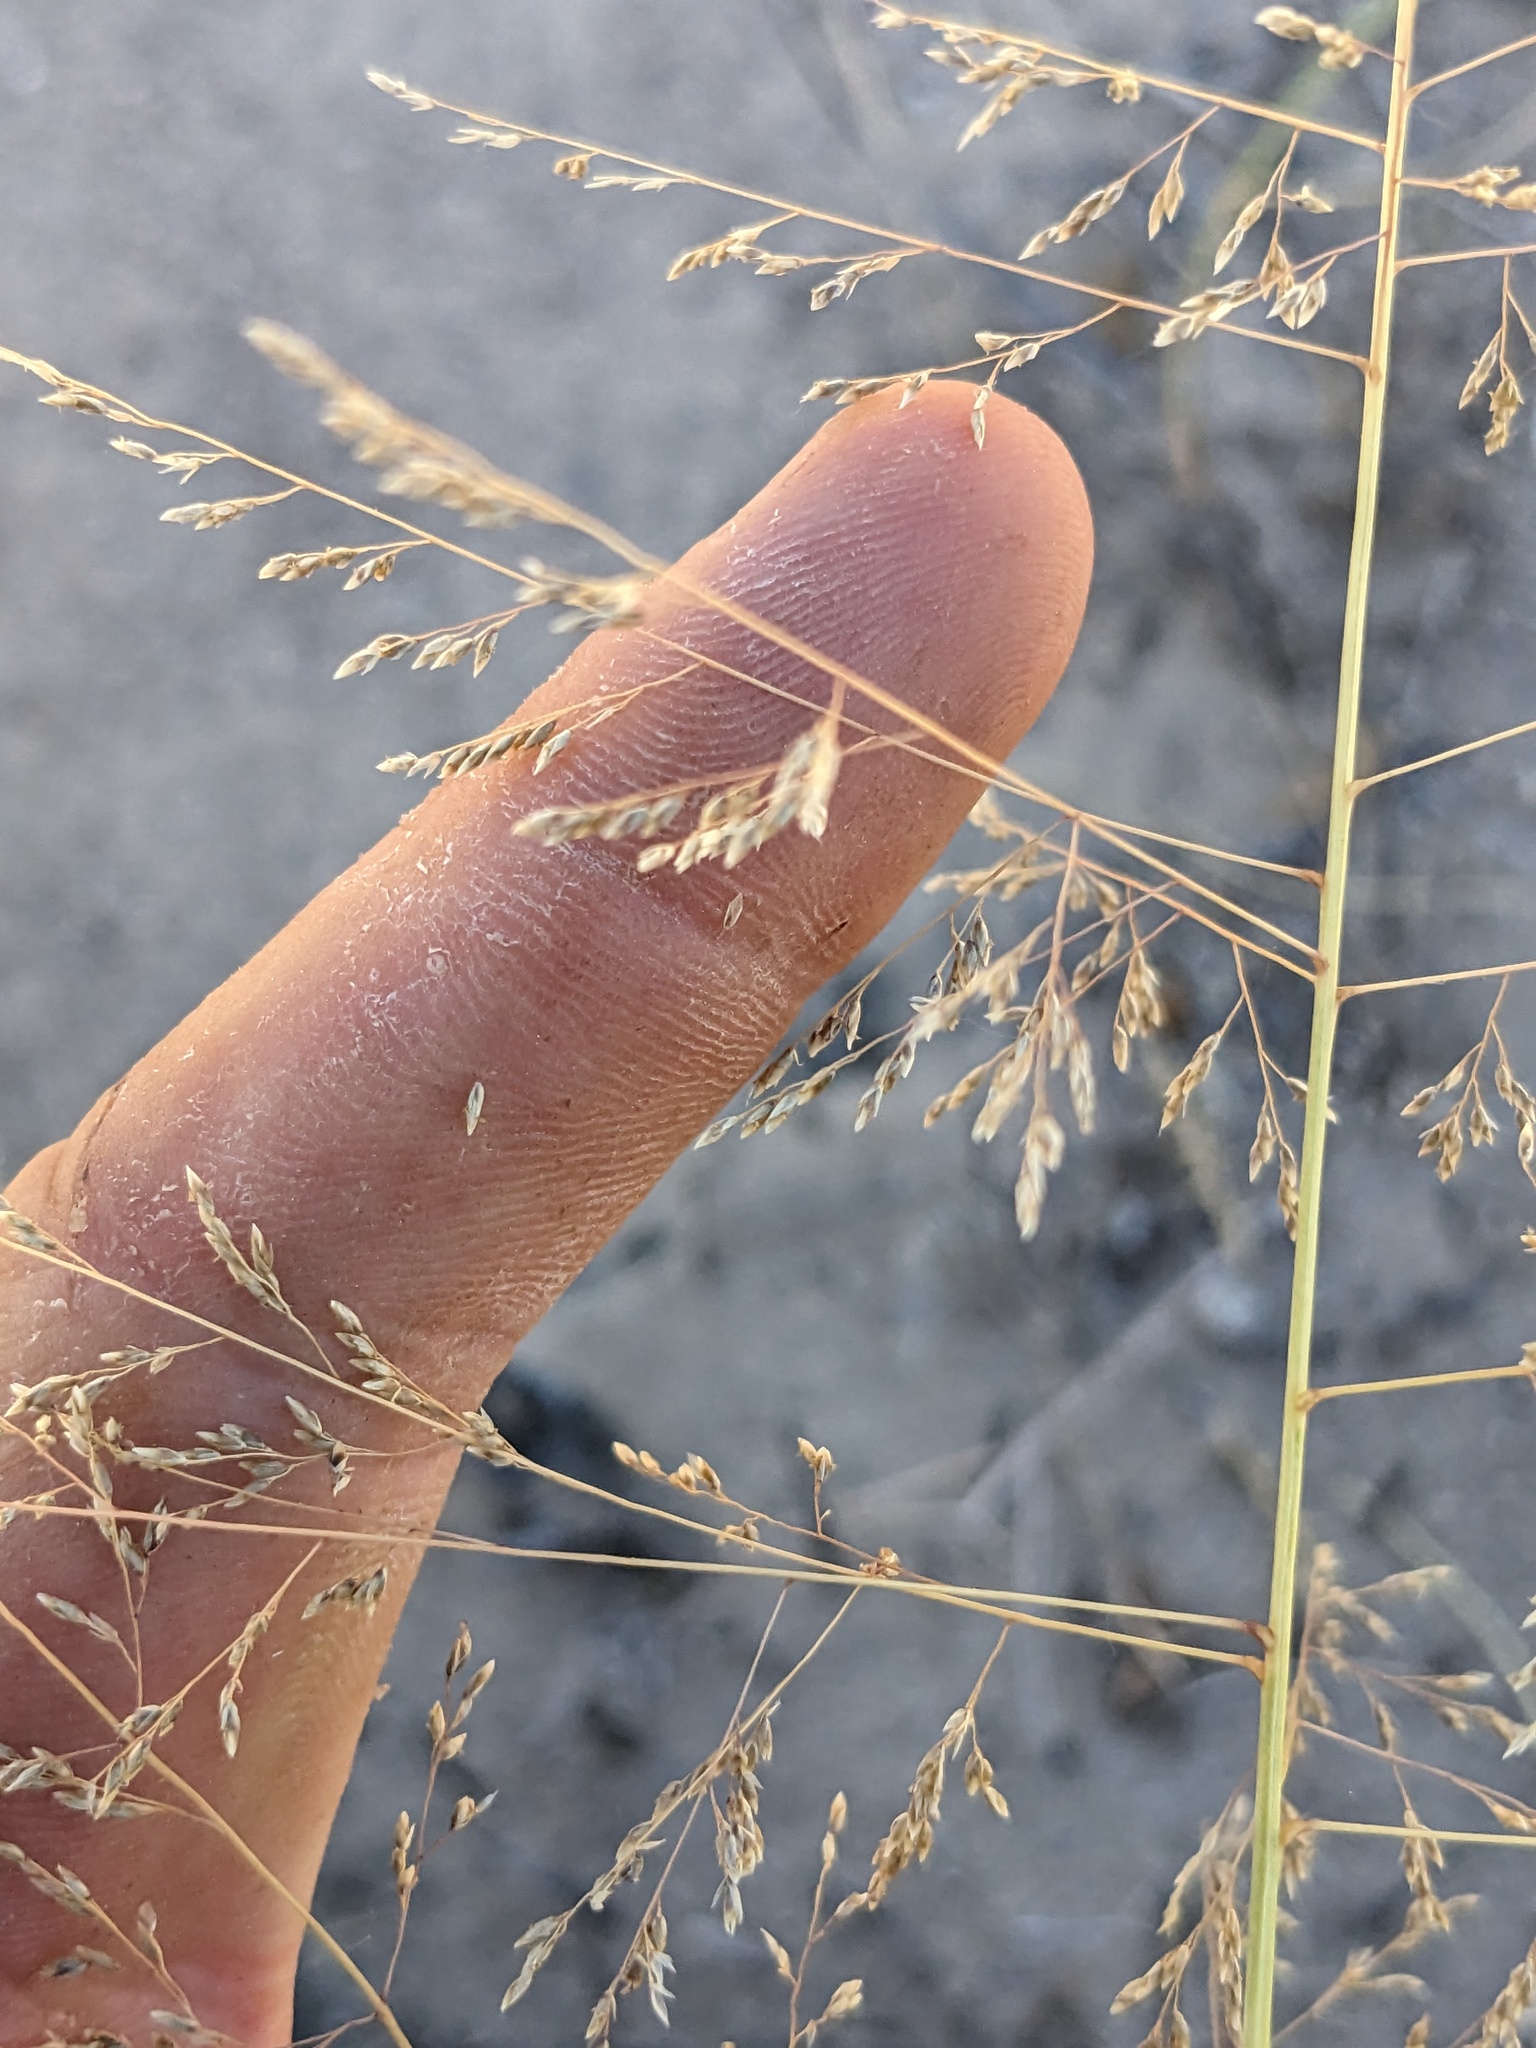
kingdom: Plantae
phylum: Tracheophyta
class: Liliopsida
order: Poales
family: Poaceae
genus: Sporobolus
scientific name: Sporobolus airoides
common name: Alkali sacaton
